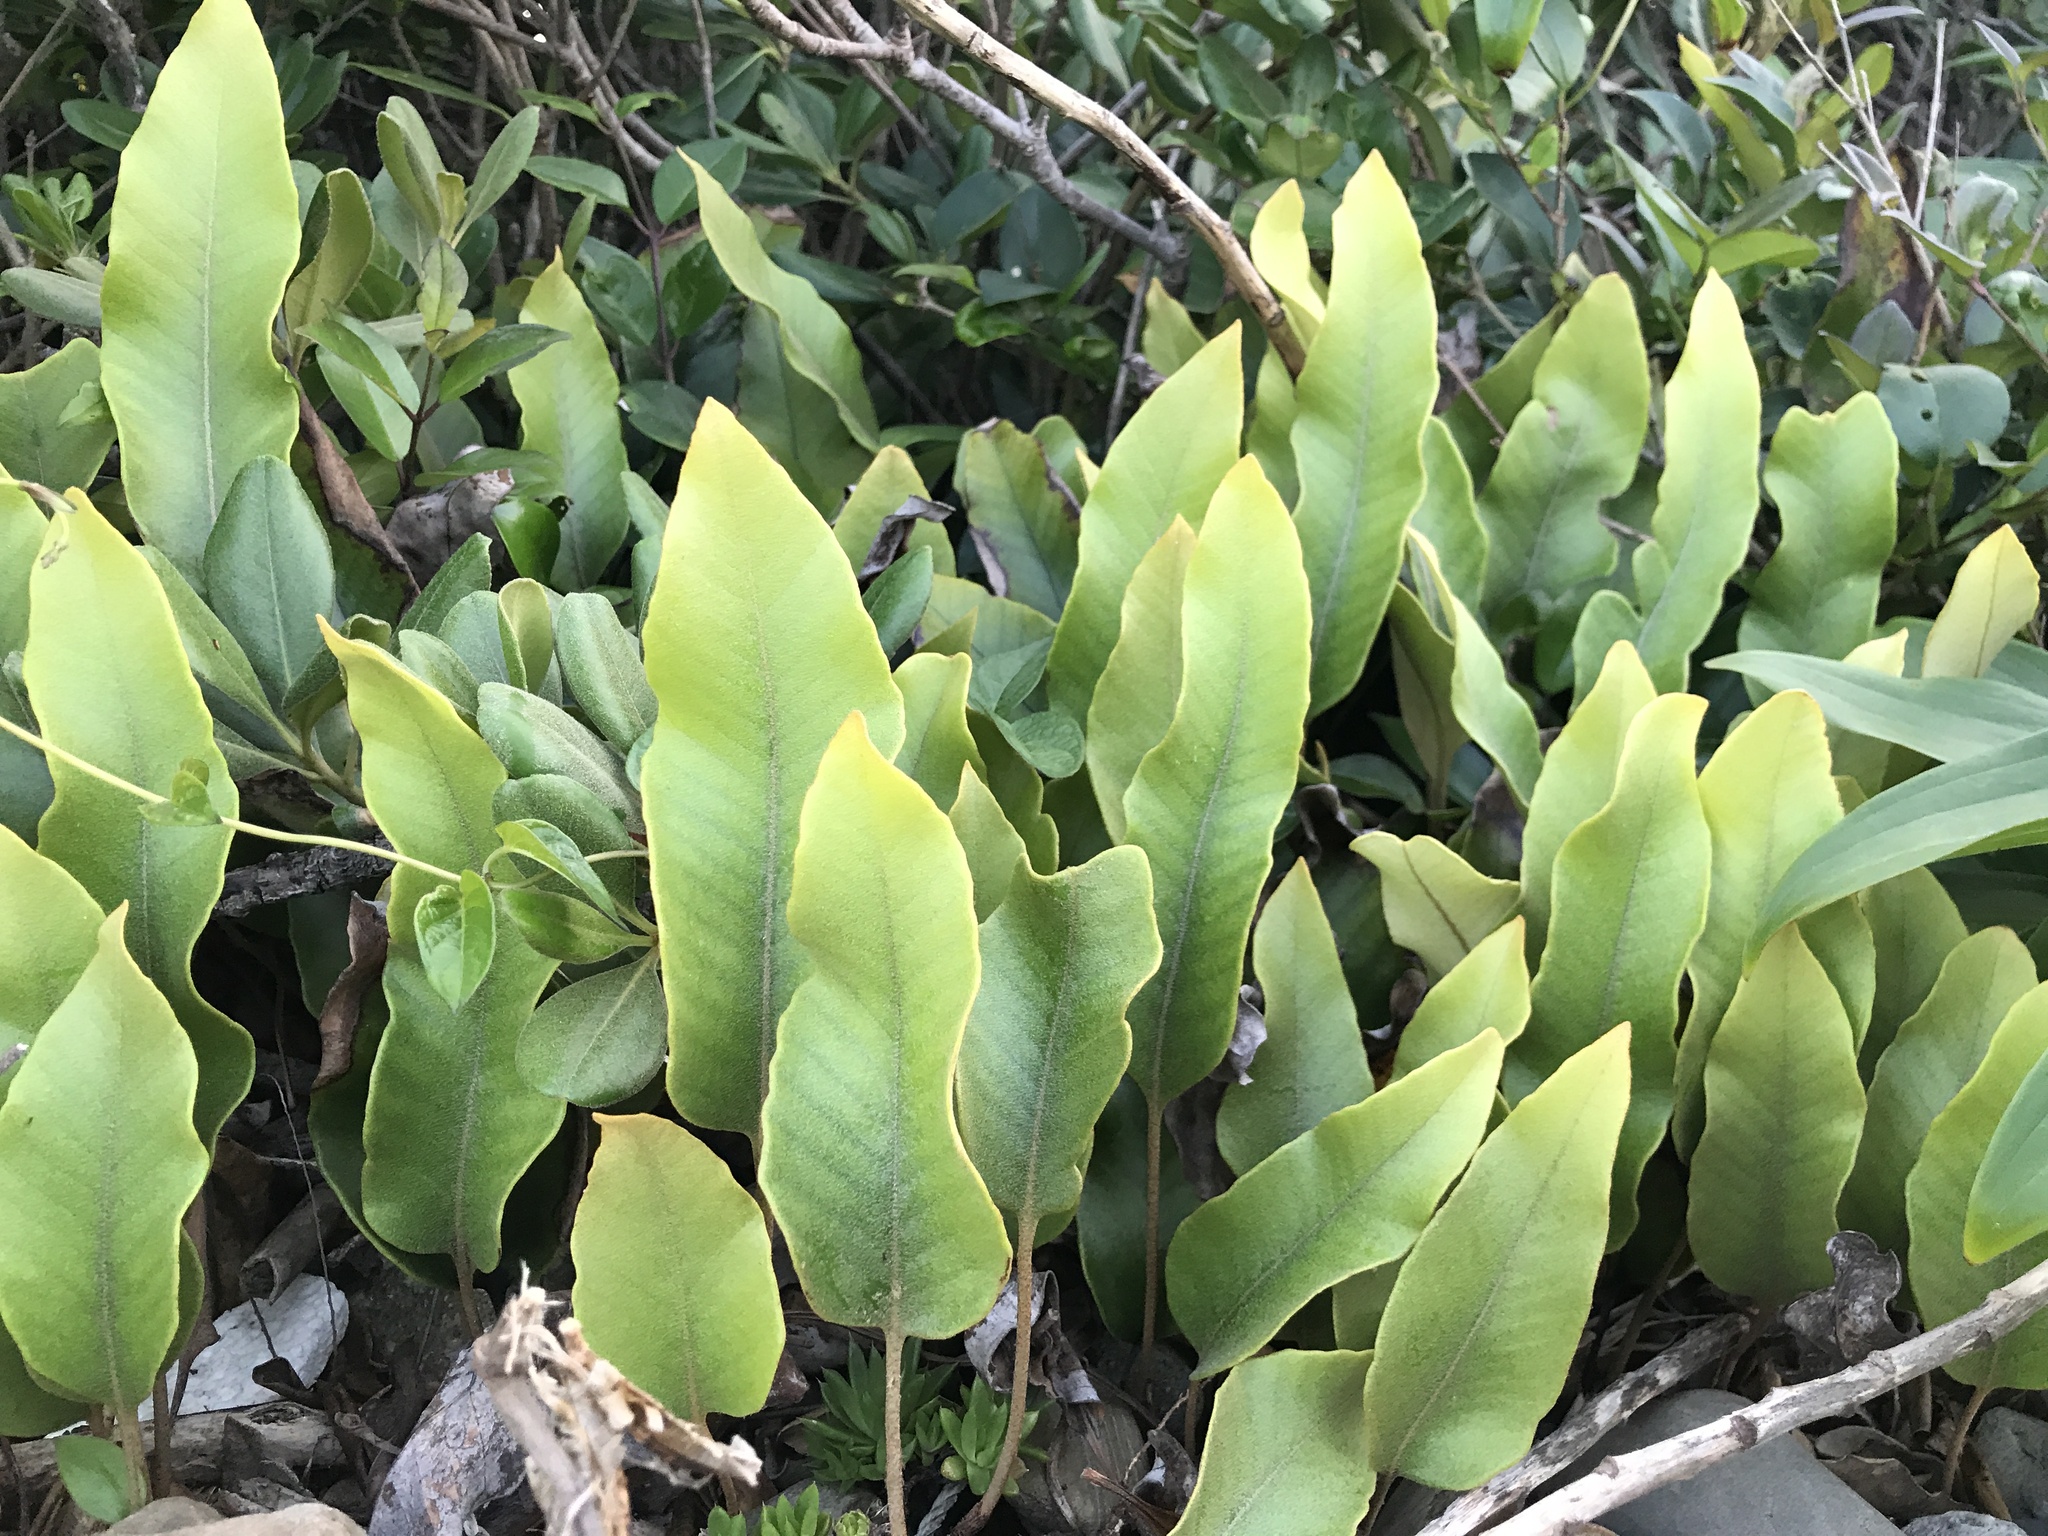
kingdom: Plantae
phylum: Tracheophyta
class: Polypodiopsida
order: Polypodiales
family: Polypodiaceae
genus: Pyrrosia
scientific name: Pyrrosia lingua
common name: Felt fern
